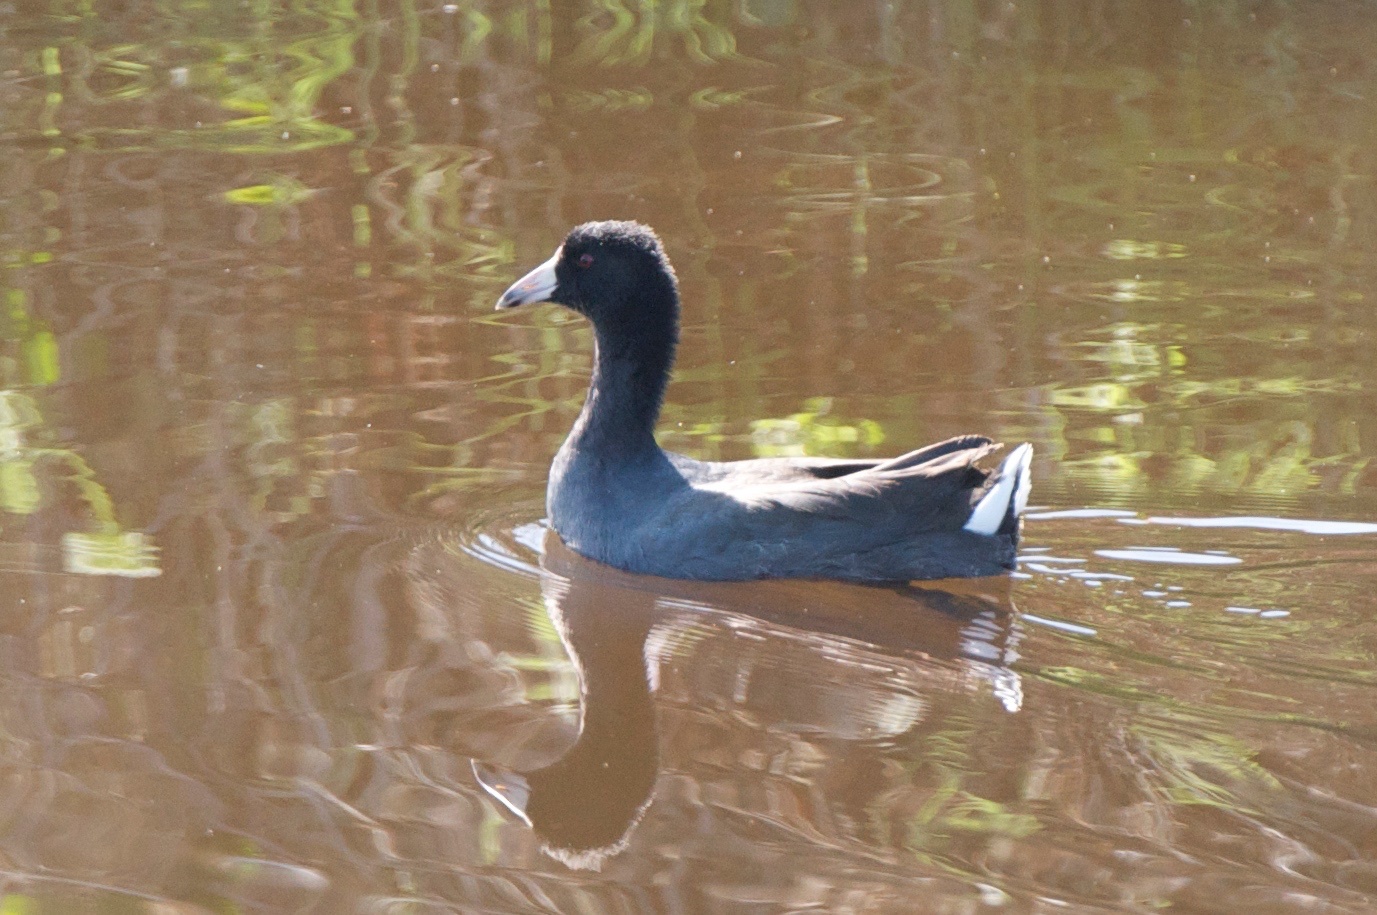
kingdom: Animalia
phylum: Chordata
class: Aves
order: Gruiformes
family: Rallidae
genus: Fulica
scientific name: Fulica americana
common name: American coot
